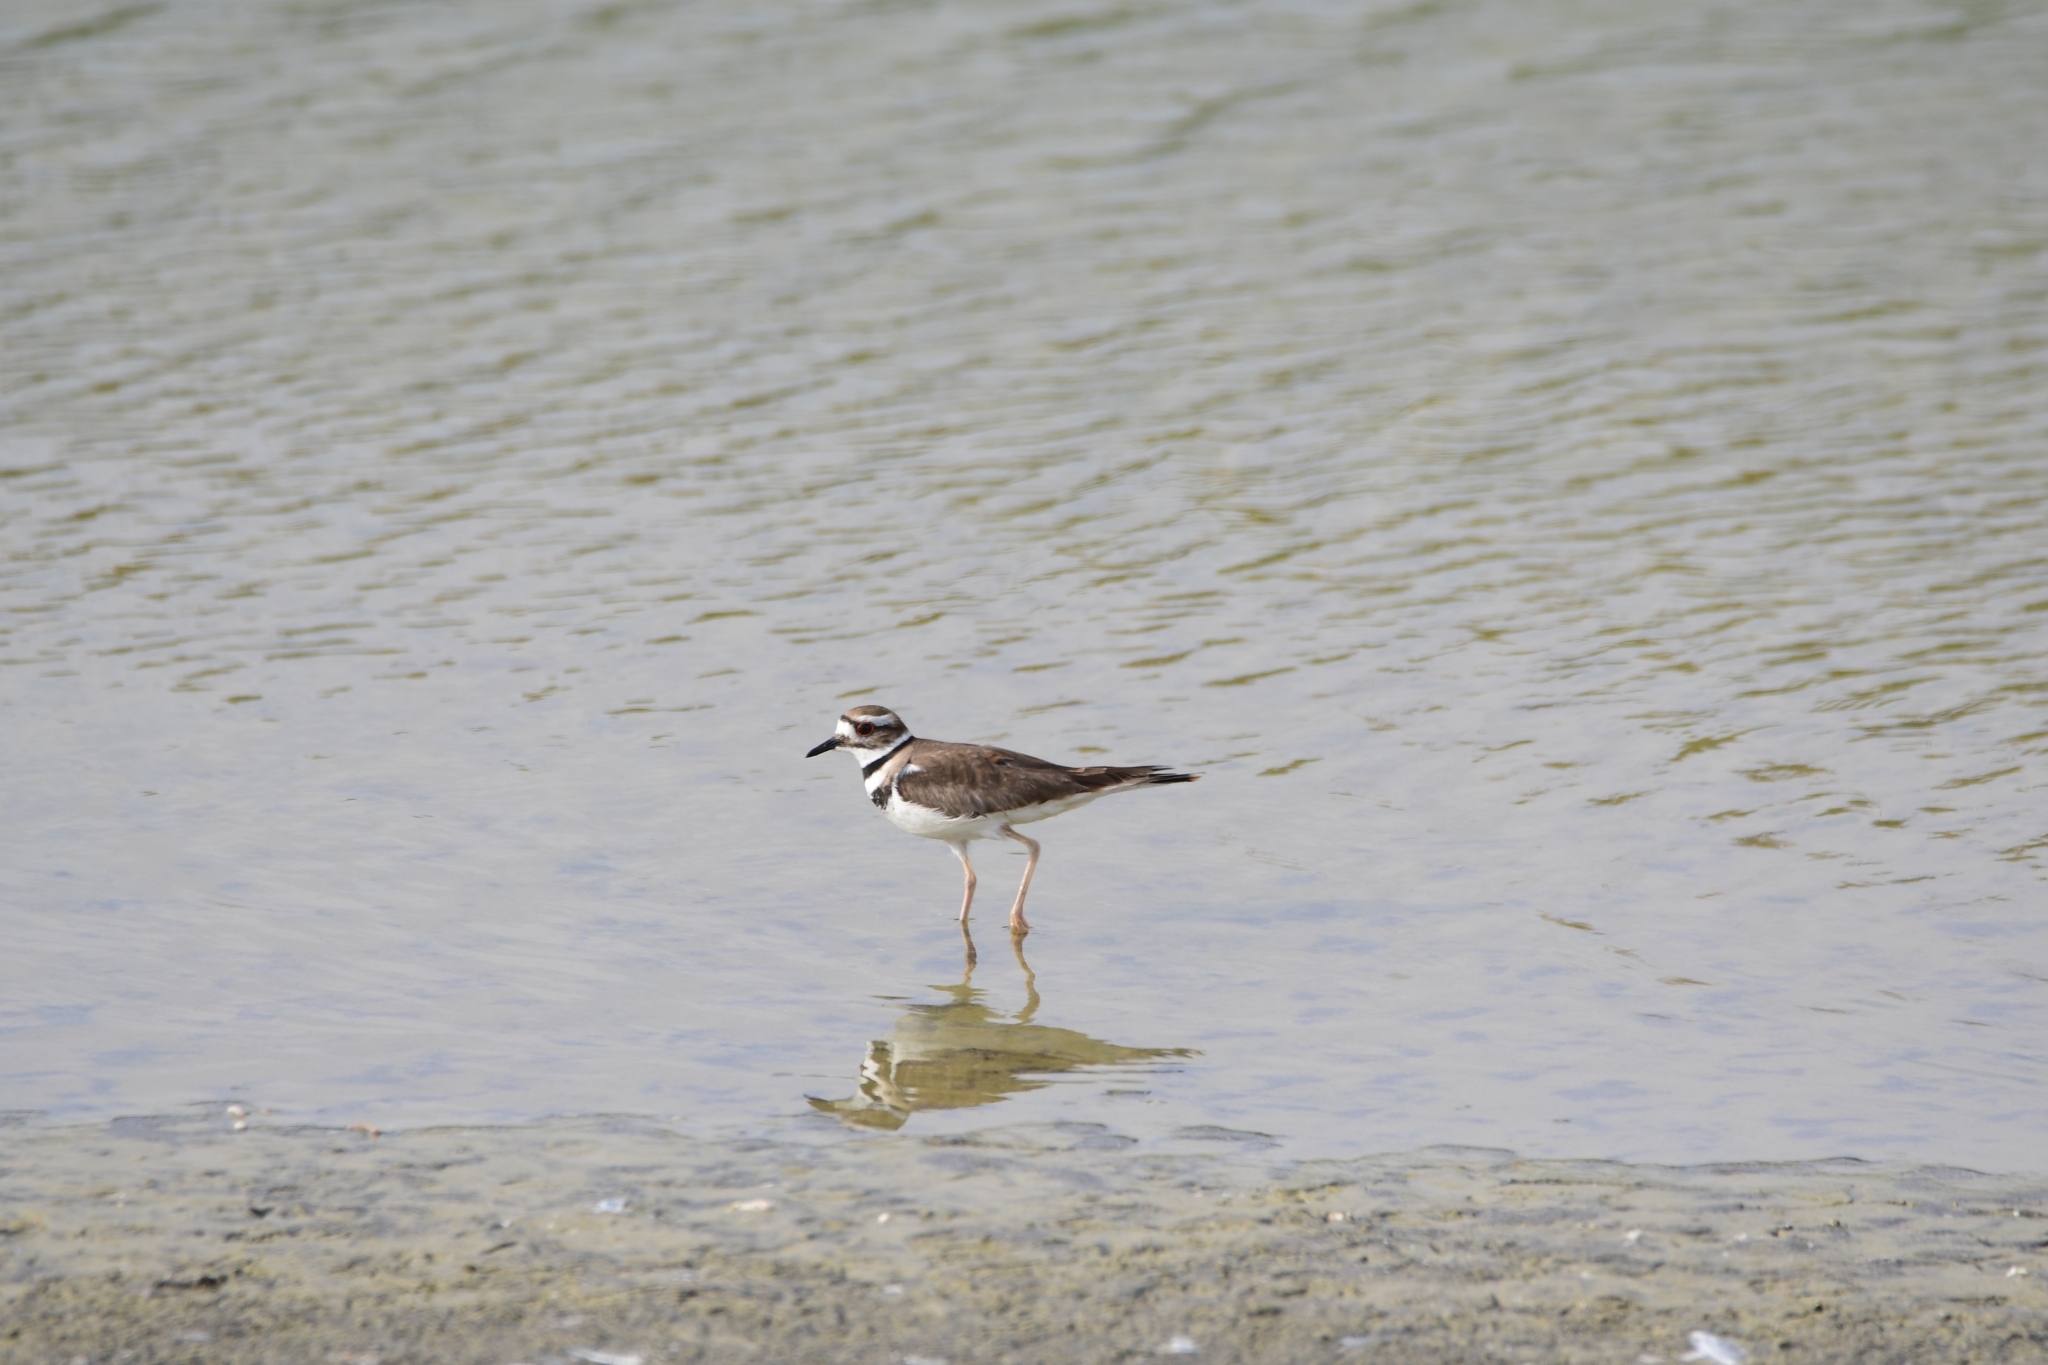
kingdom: Animalia
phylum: Chordata
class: Aves
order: Charadriiformes
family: Charadriidae
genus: Charadrius
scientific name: Charadrius vociferus
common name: Killdeer
